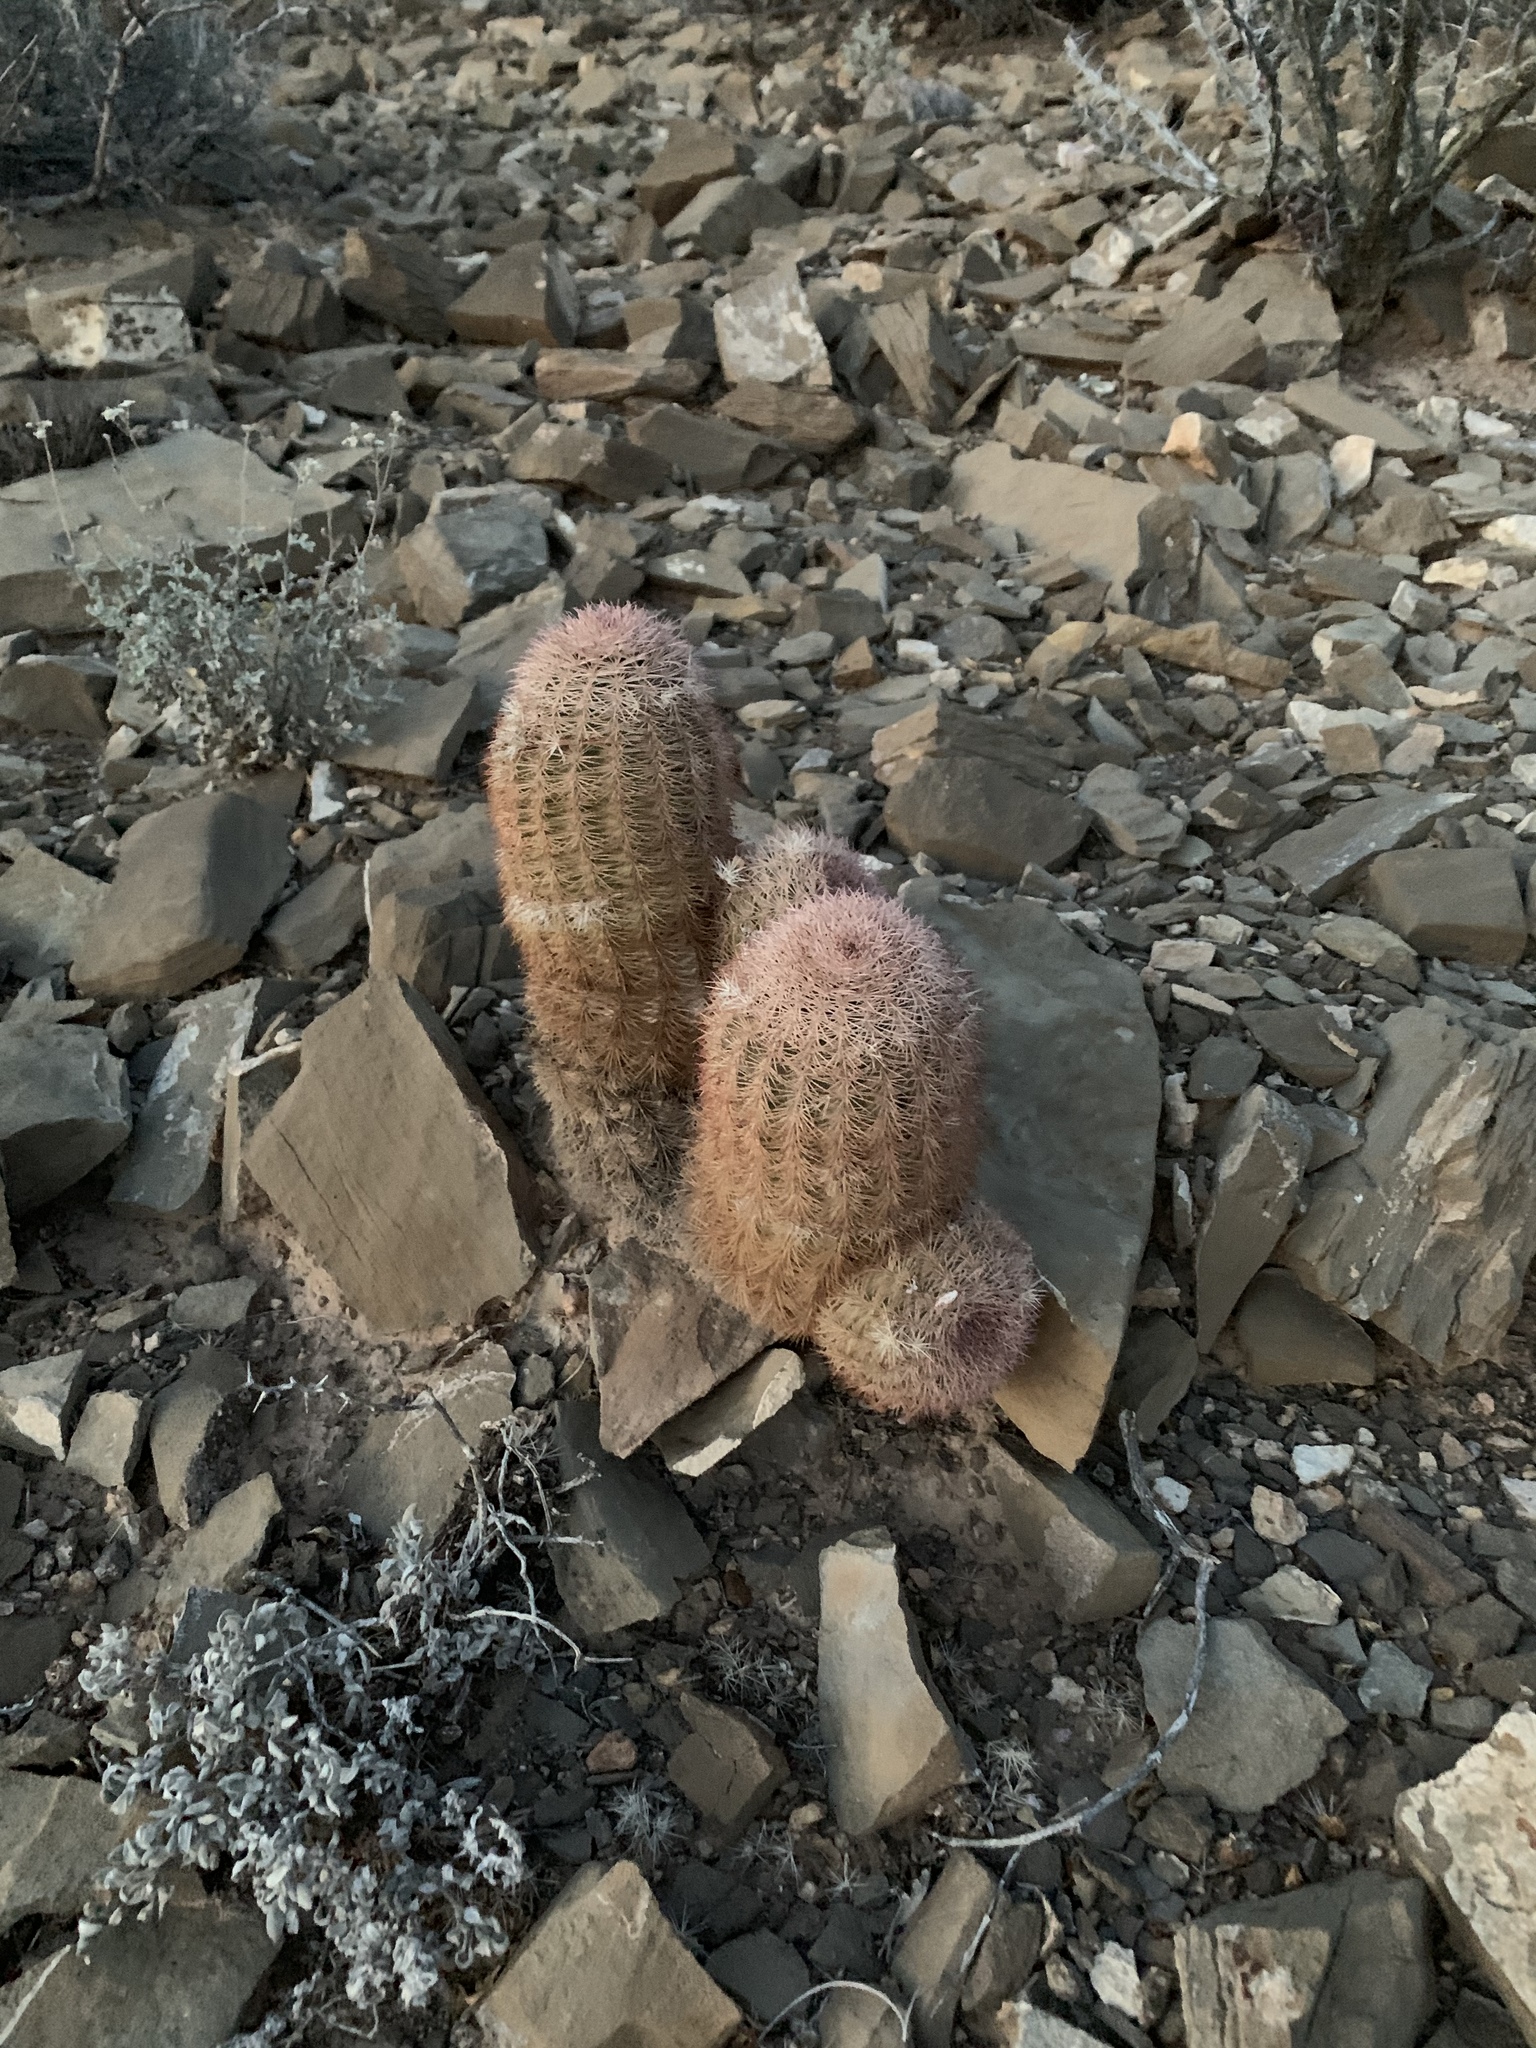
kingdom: Plantae
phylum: Tracheophyta
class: Magnoliopsida
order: Caryophyllales
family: Cactaceae
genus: Echinocereus
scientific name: Echinocereus dasyacanthus
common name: Spiny hedgehog cactus
